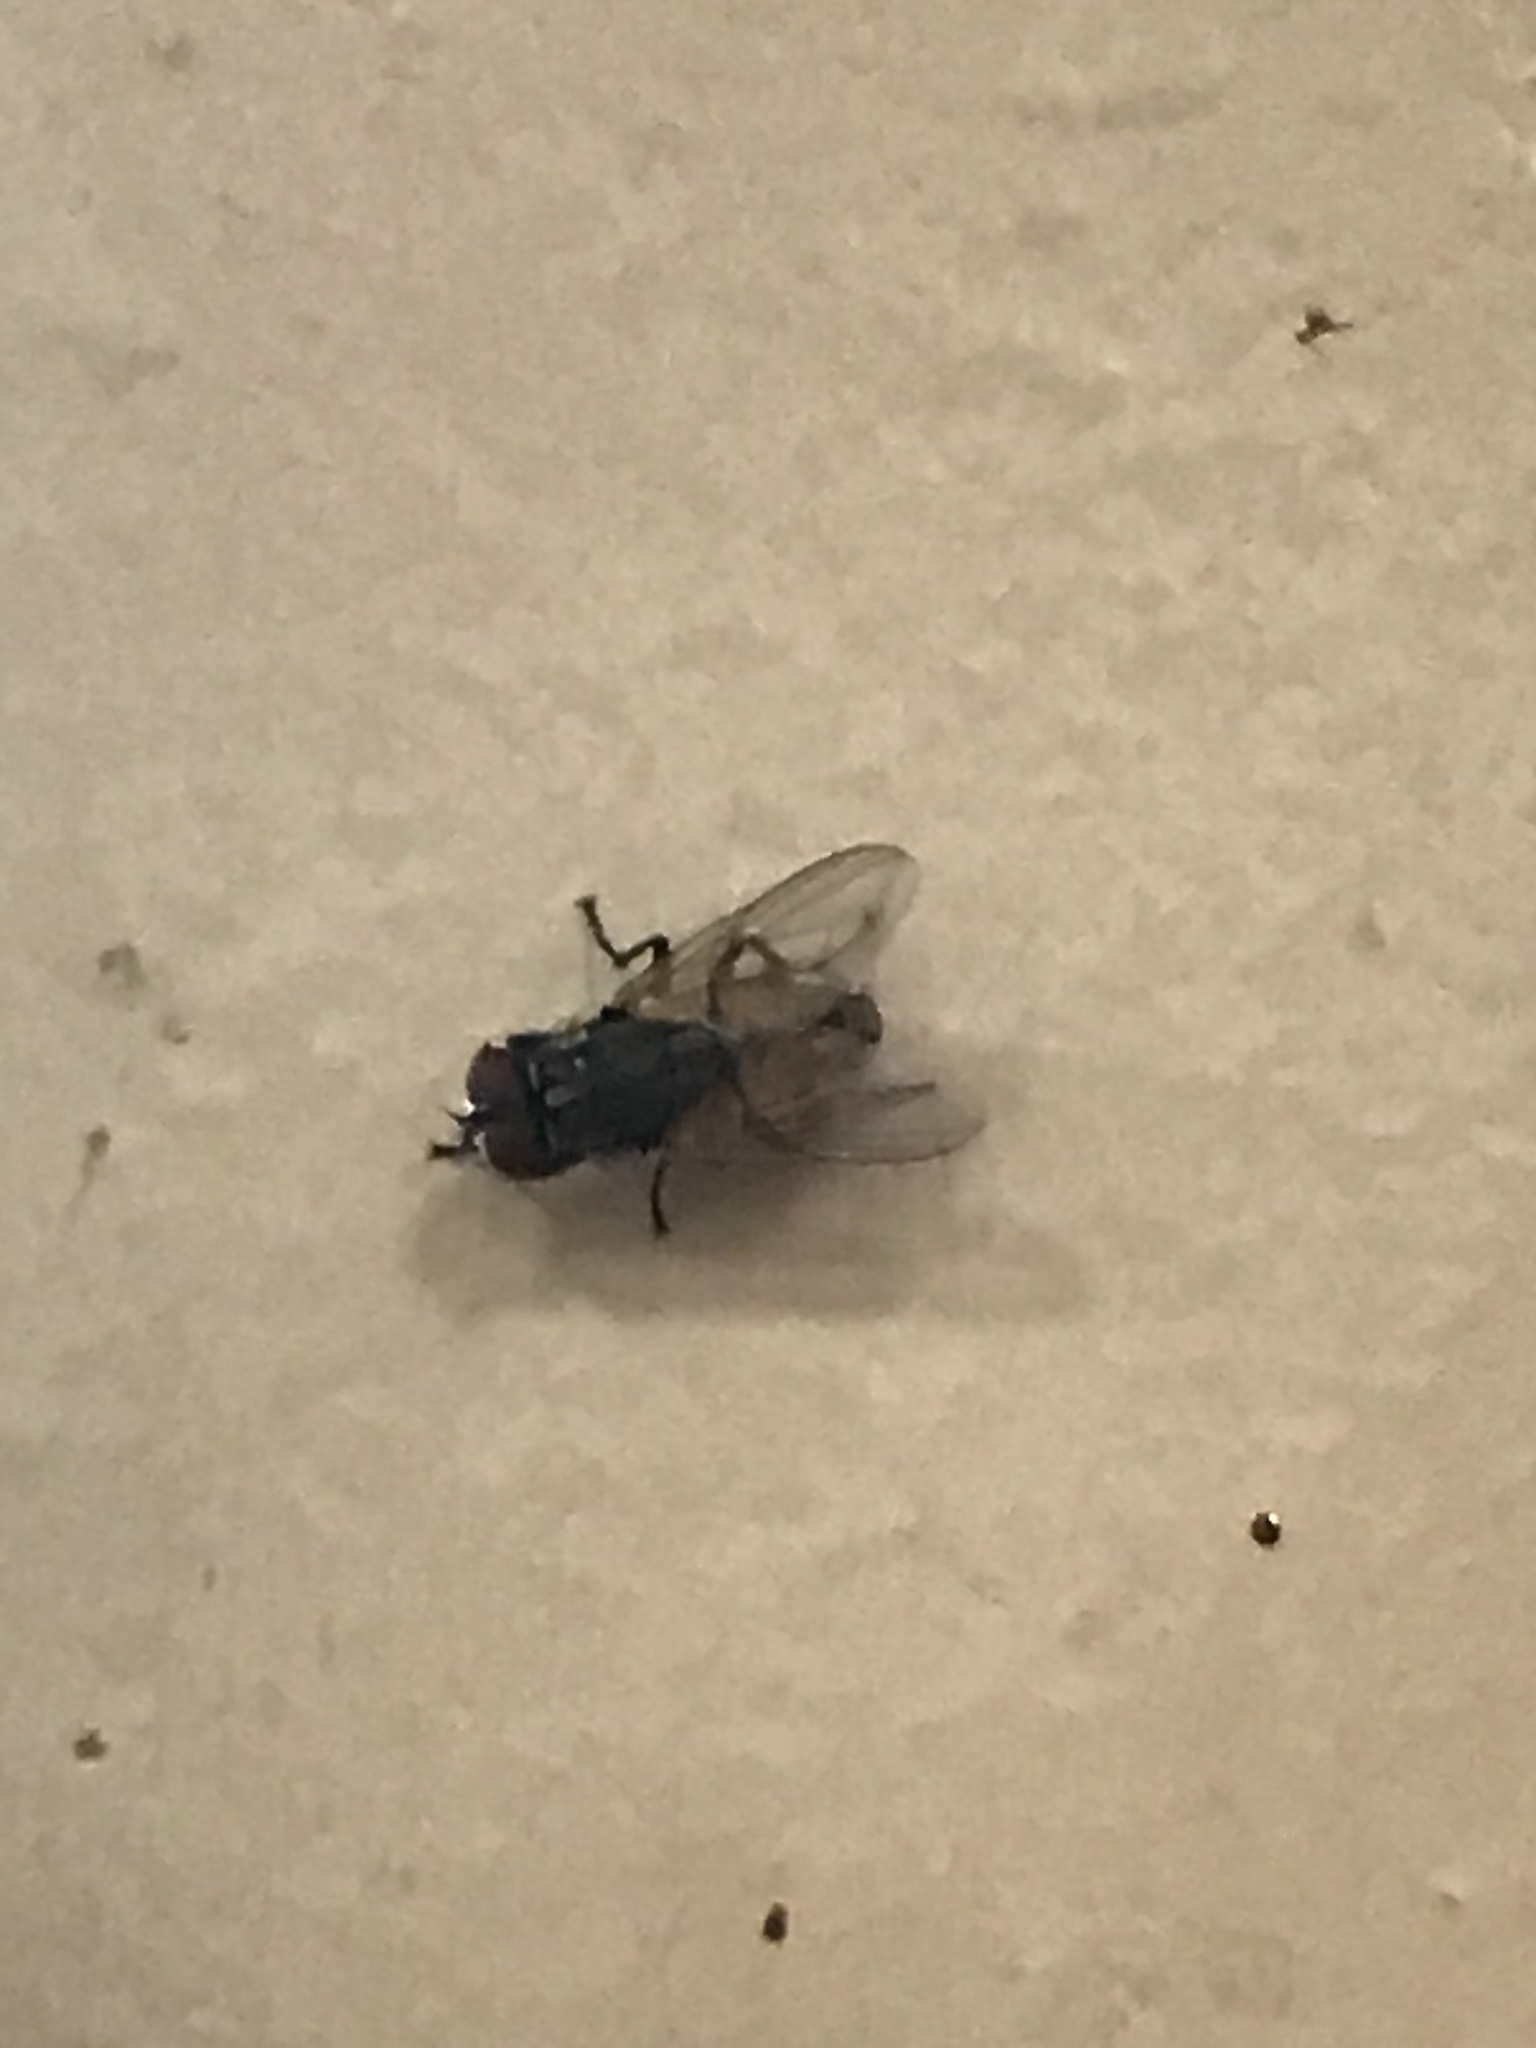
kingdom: Animalia
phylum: Arthropoda
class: Insecta
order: Diptera
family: Muscidae
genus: Musca
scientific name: Musca domestica
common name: House fly
